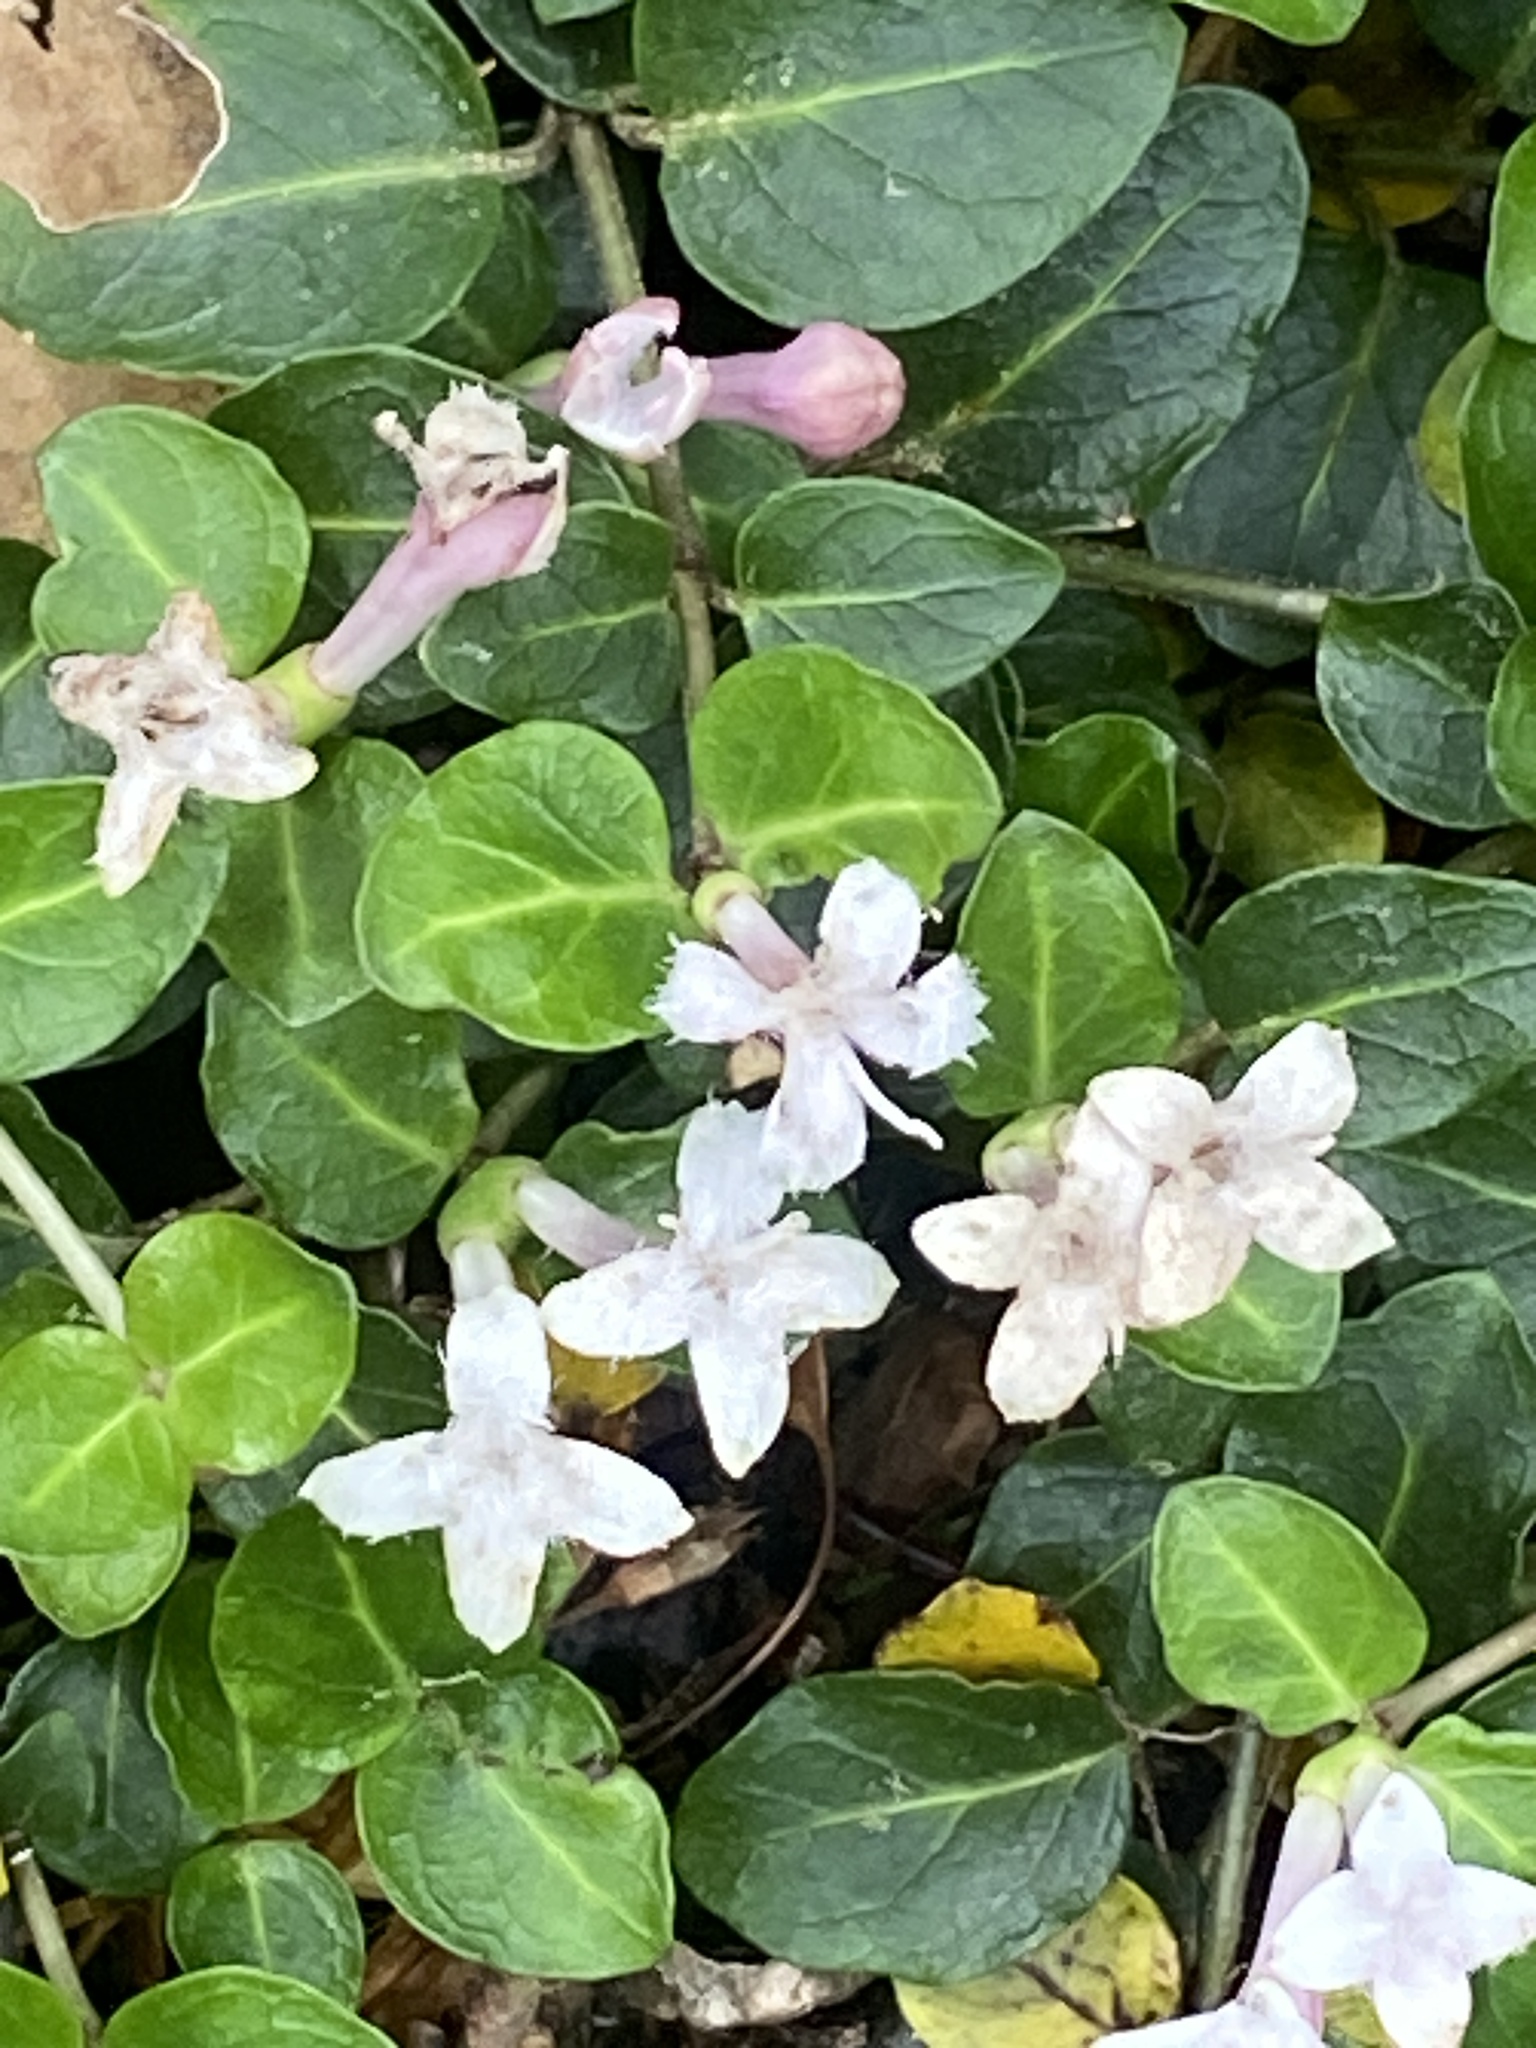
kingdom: Plantae
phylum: Tracheophyta
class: Magnoliopsida
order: Gentianales
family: Rubiaceae
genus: Mitchella
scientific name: Mitchella repens
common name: Partridge-berry
